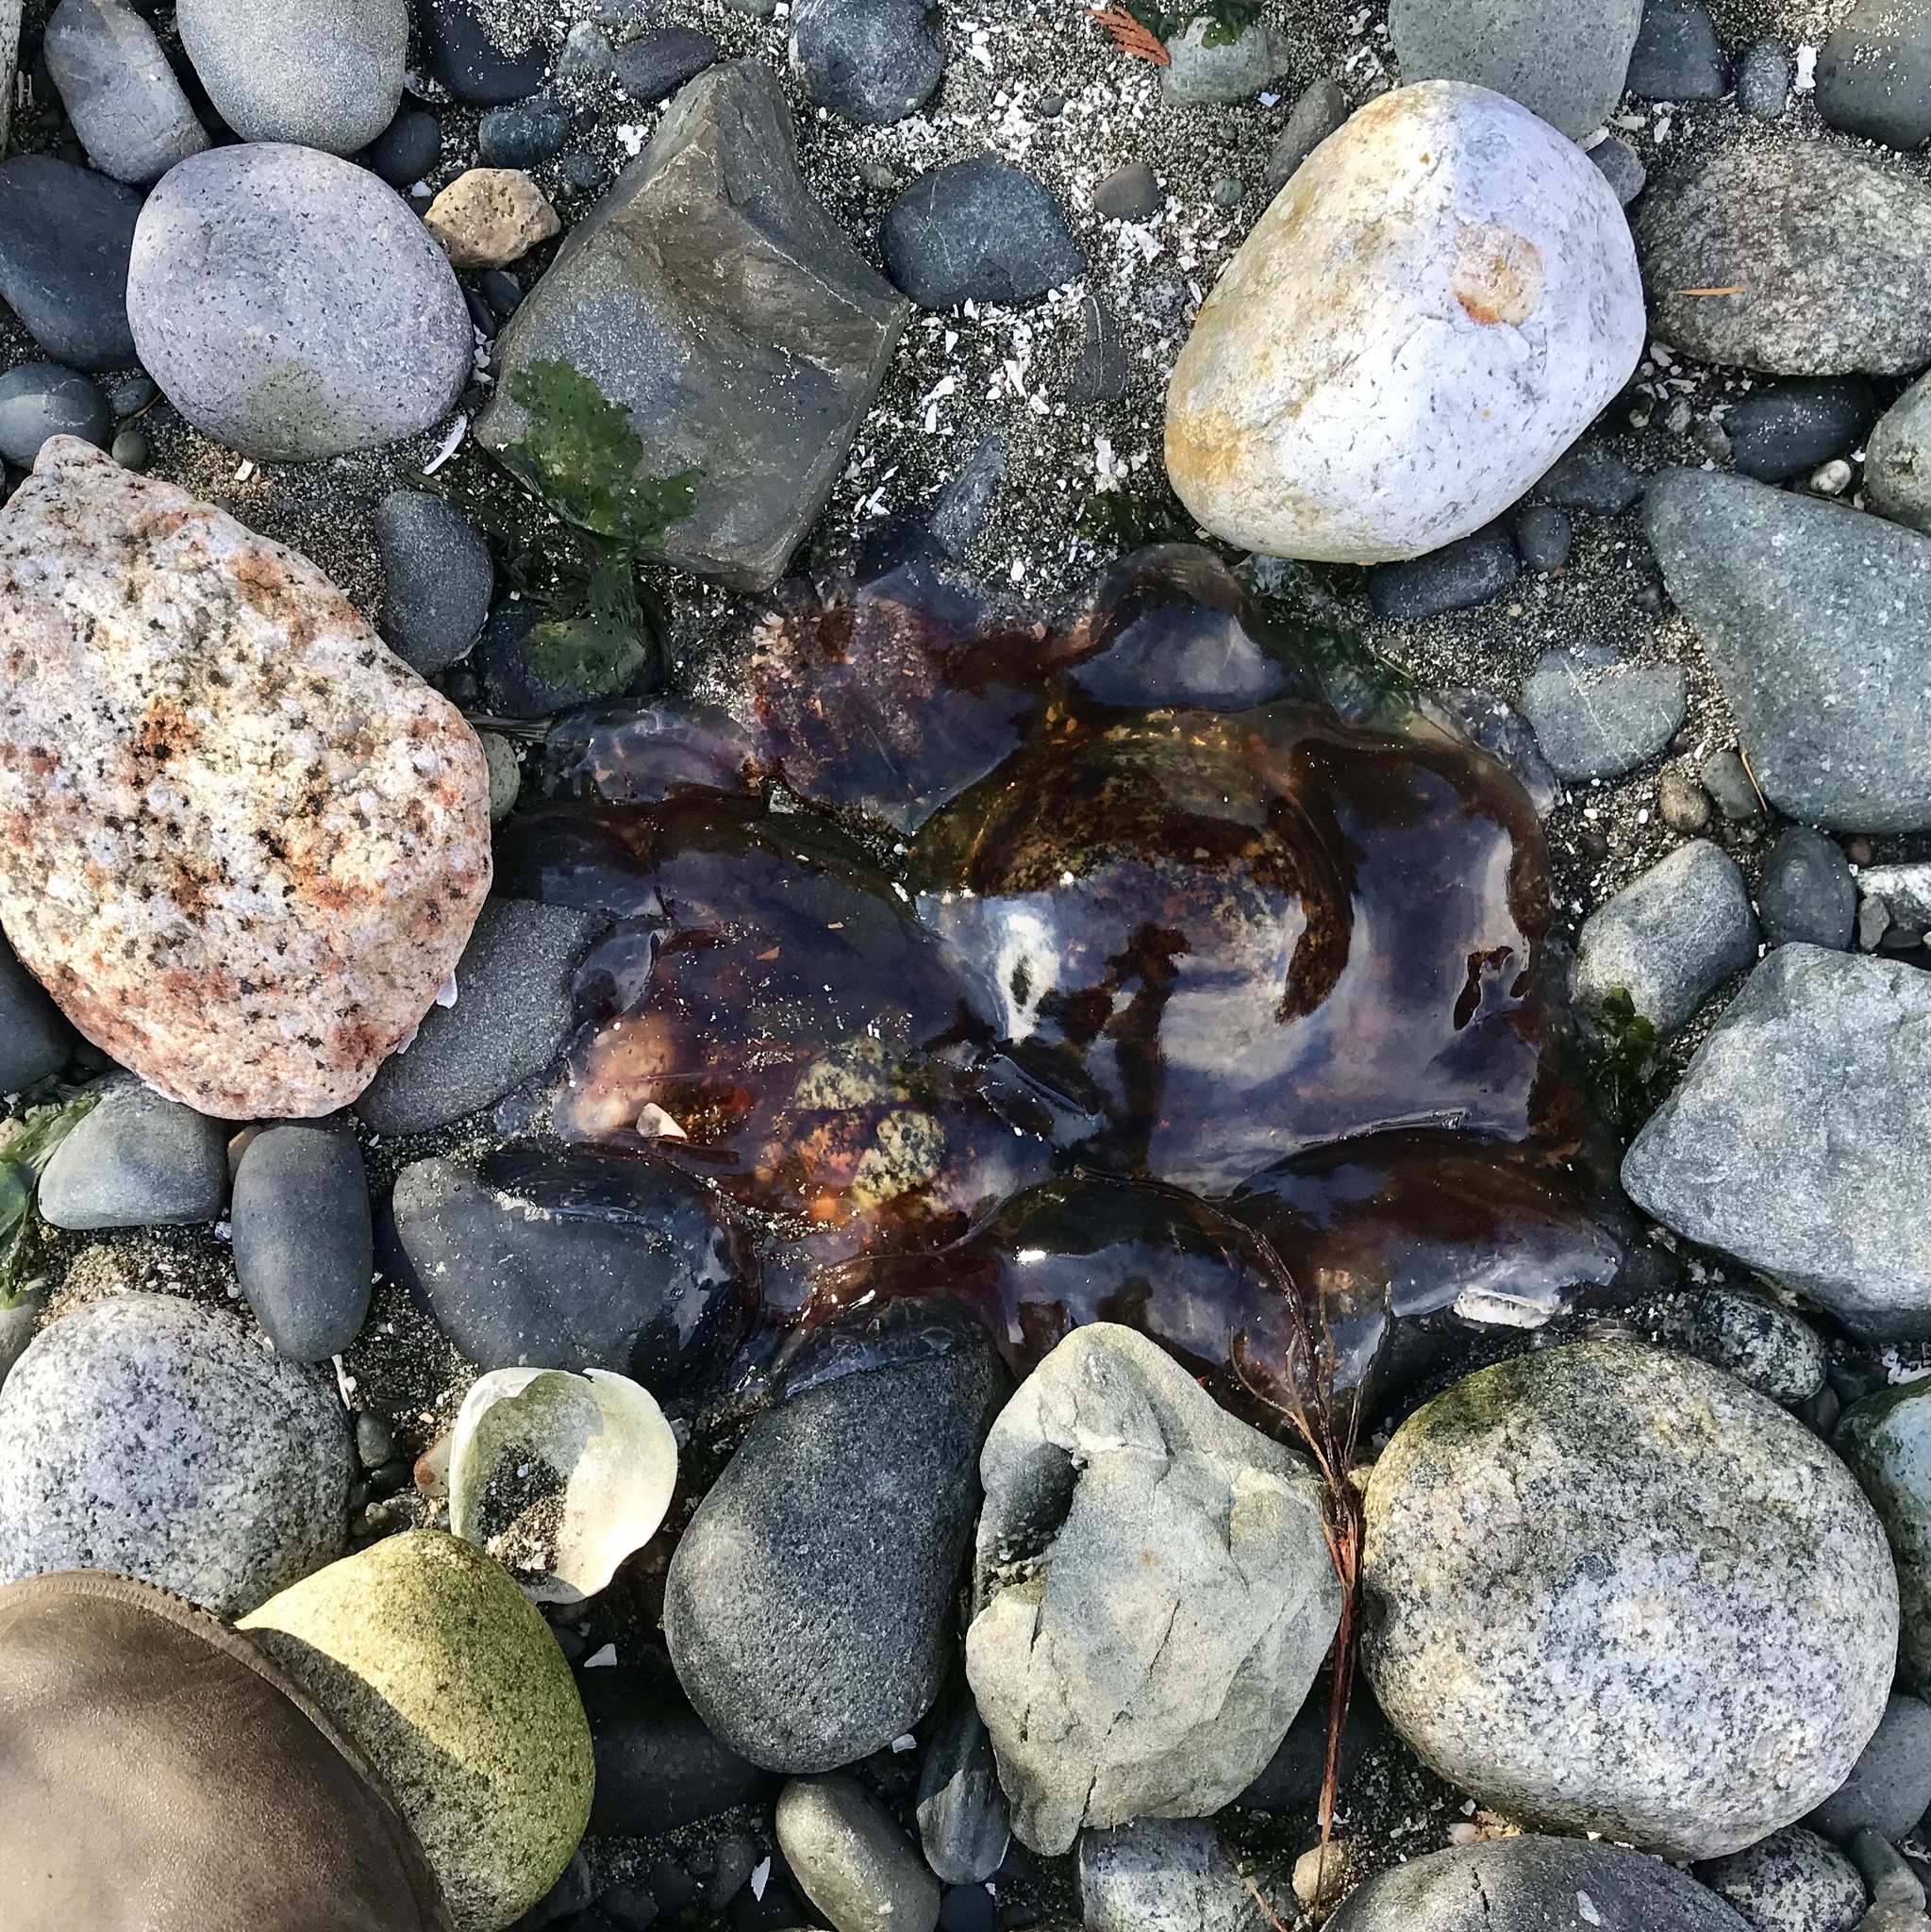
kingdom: Animalia
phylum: Cnidaria
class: Scyphozoa
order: Semaeostomeae
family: Cyaneidae
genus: Cyanea
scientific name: Cyanea ferruginea
